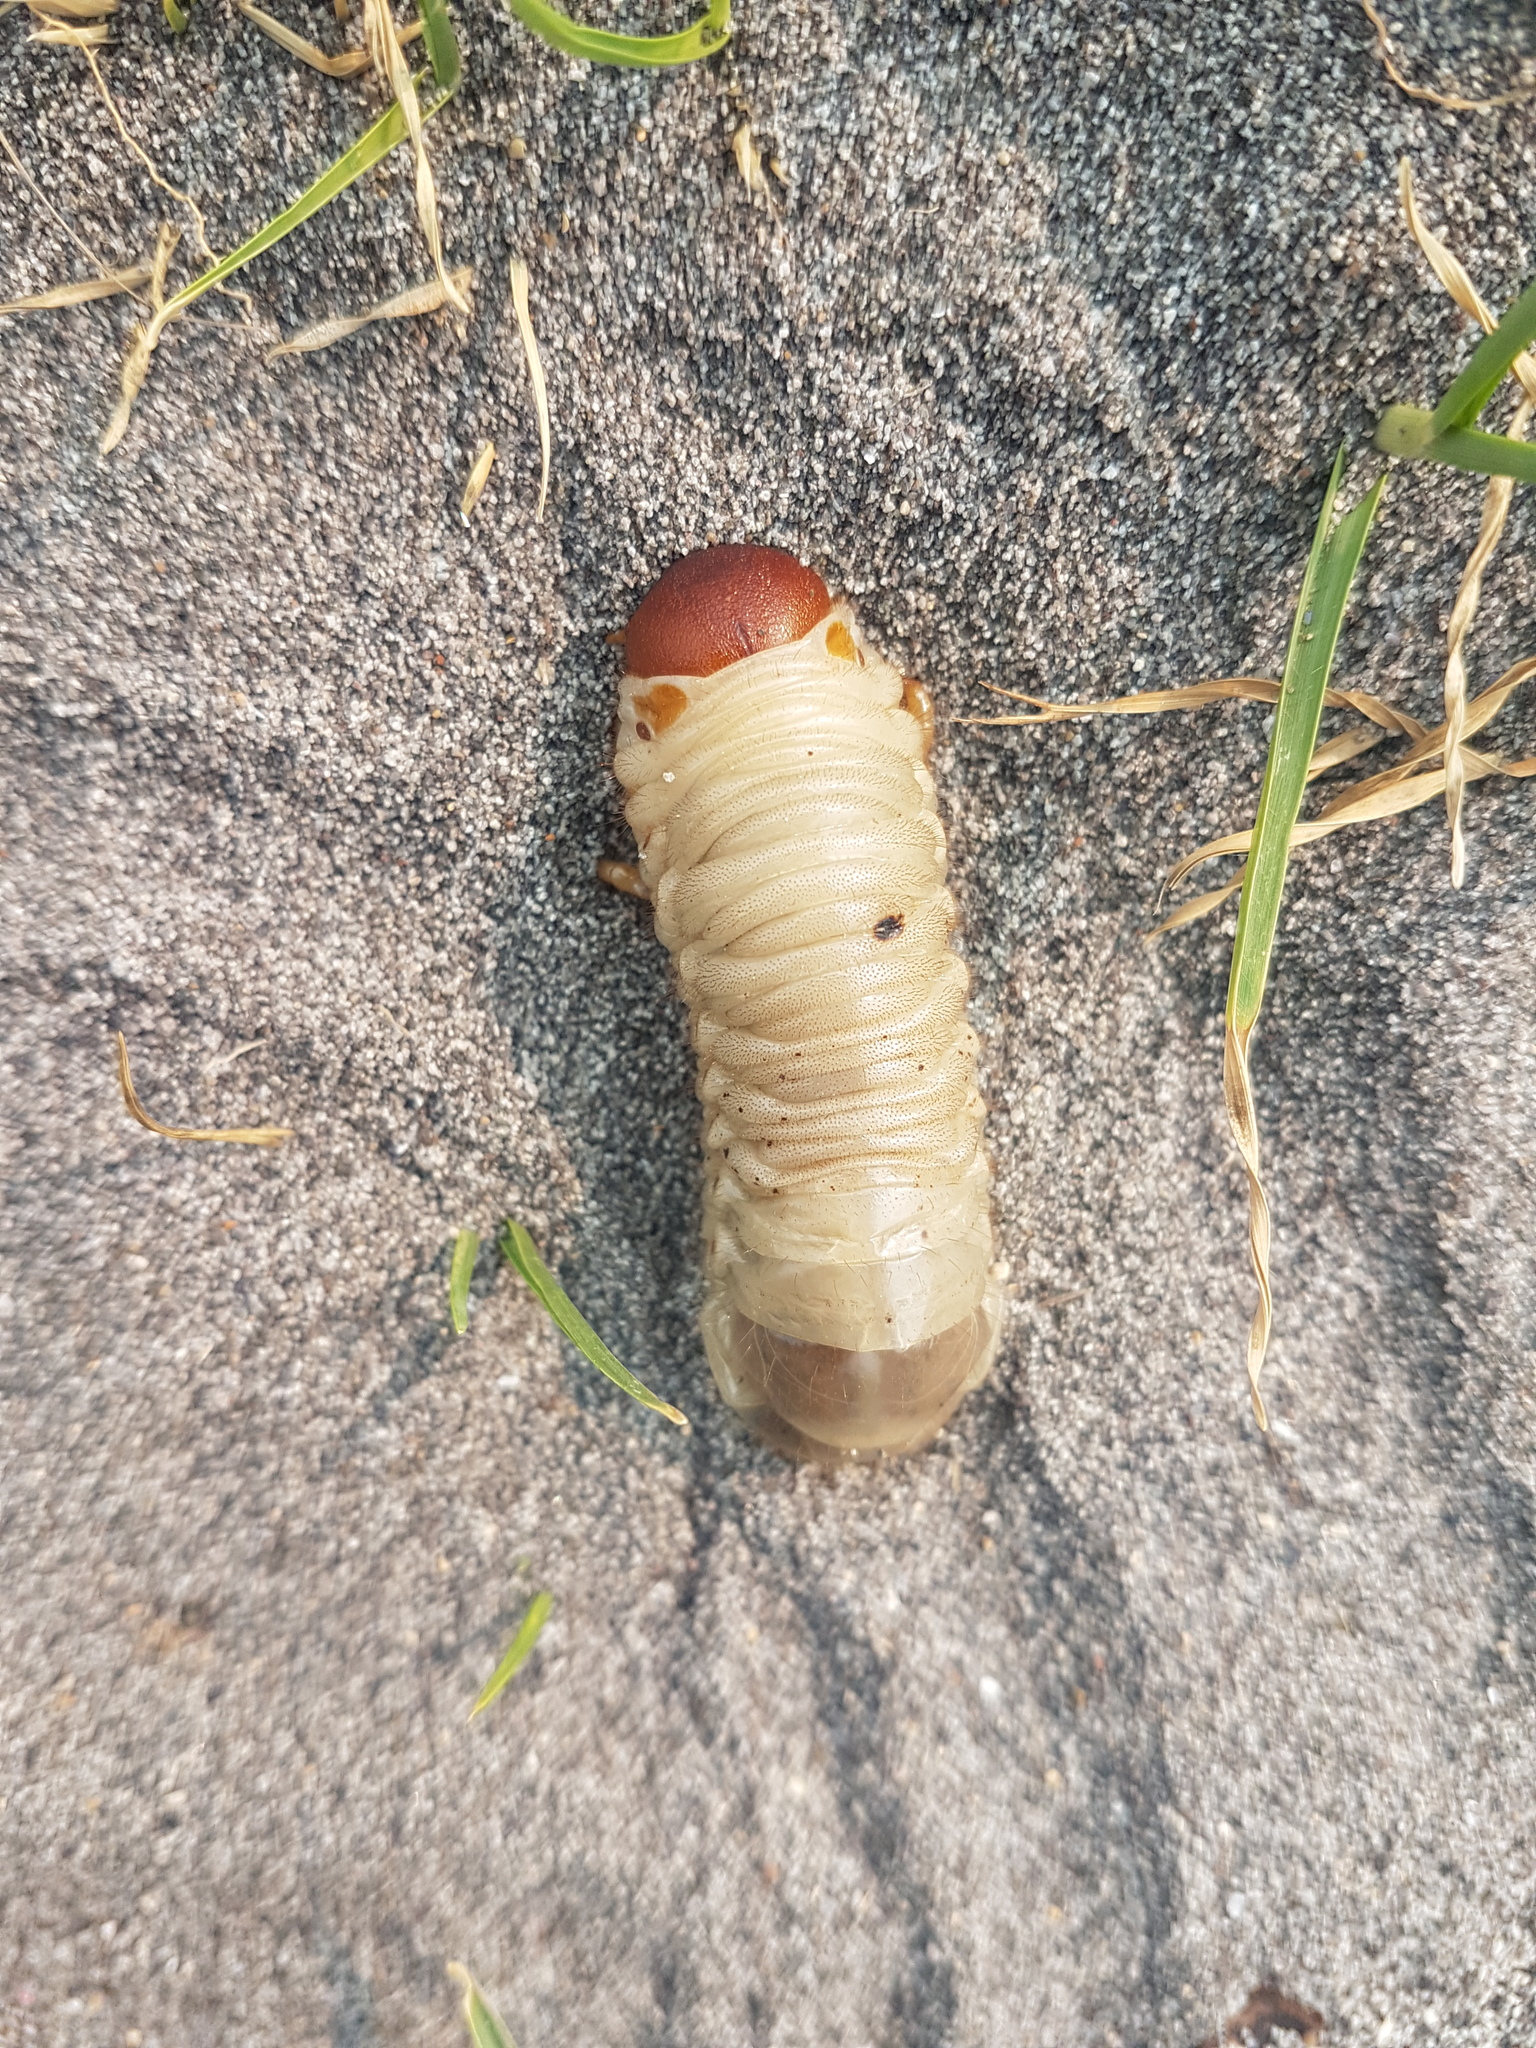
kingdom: Animalia
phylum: Arthropoda
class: Insecta
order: Coleoptera
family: Scarabaeidae
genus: Pericoptus
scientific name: Pericoptus truncatus
